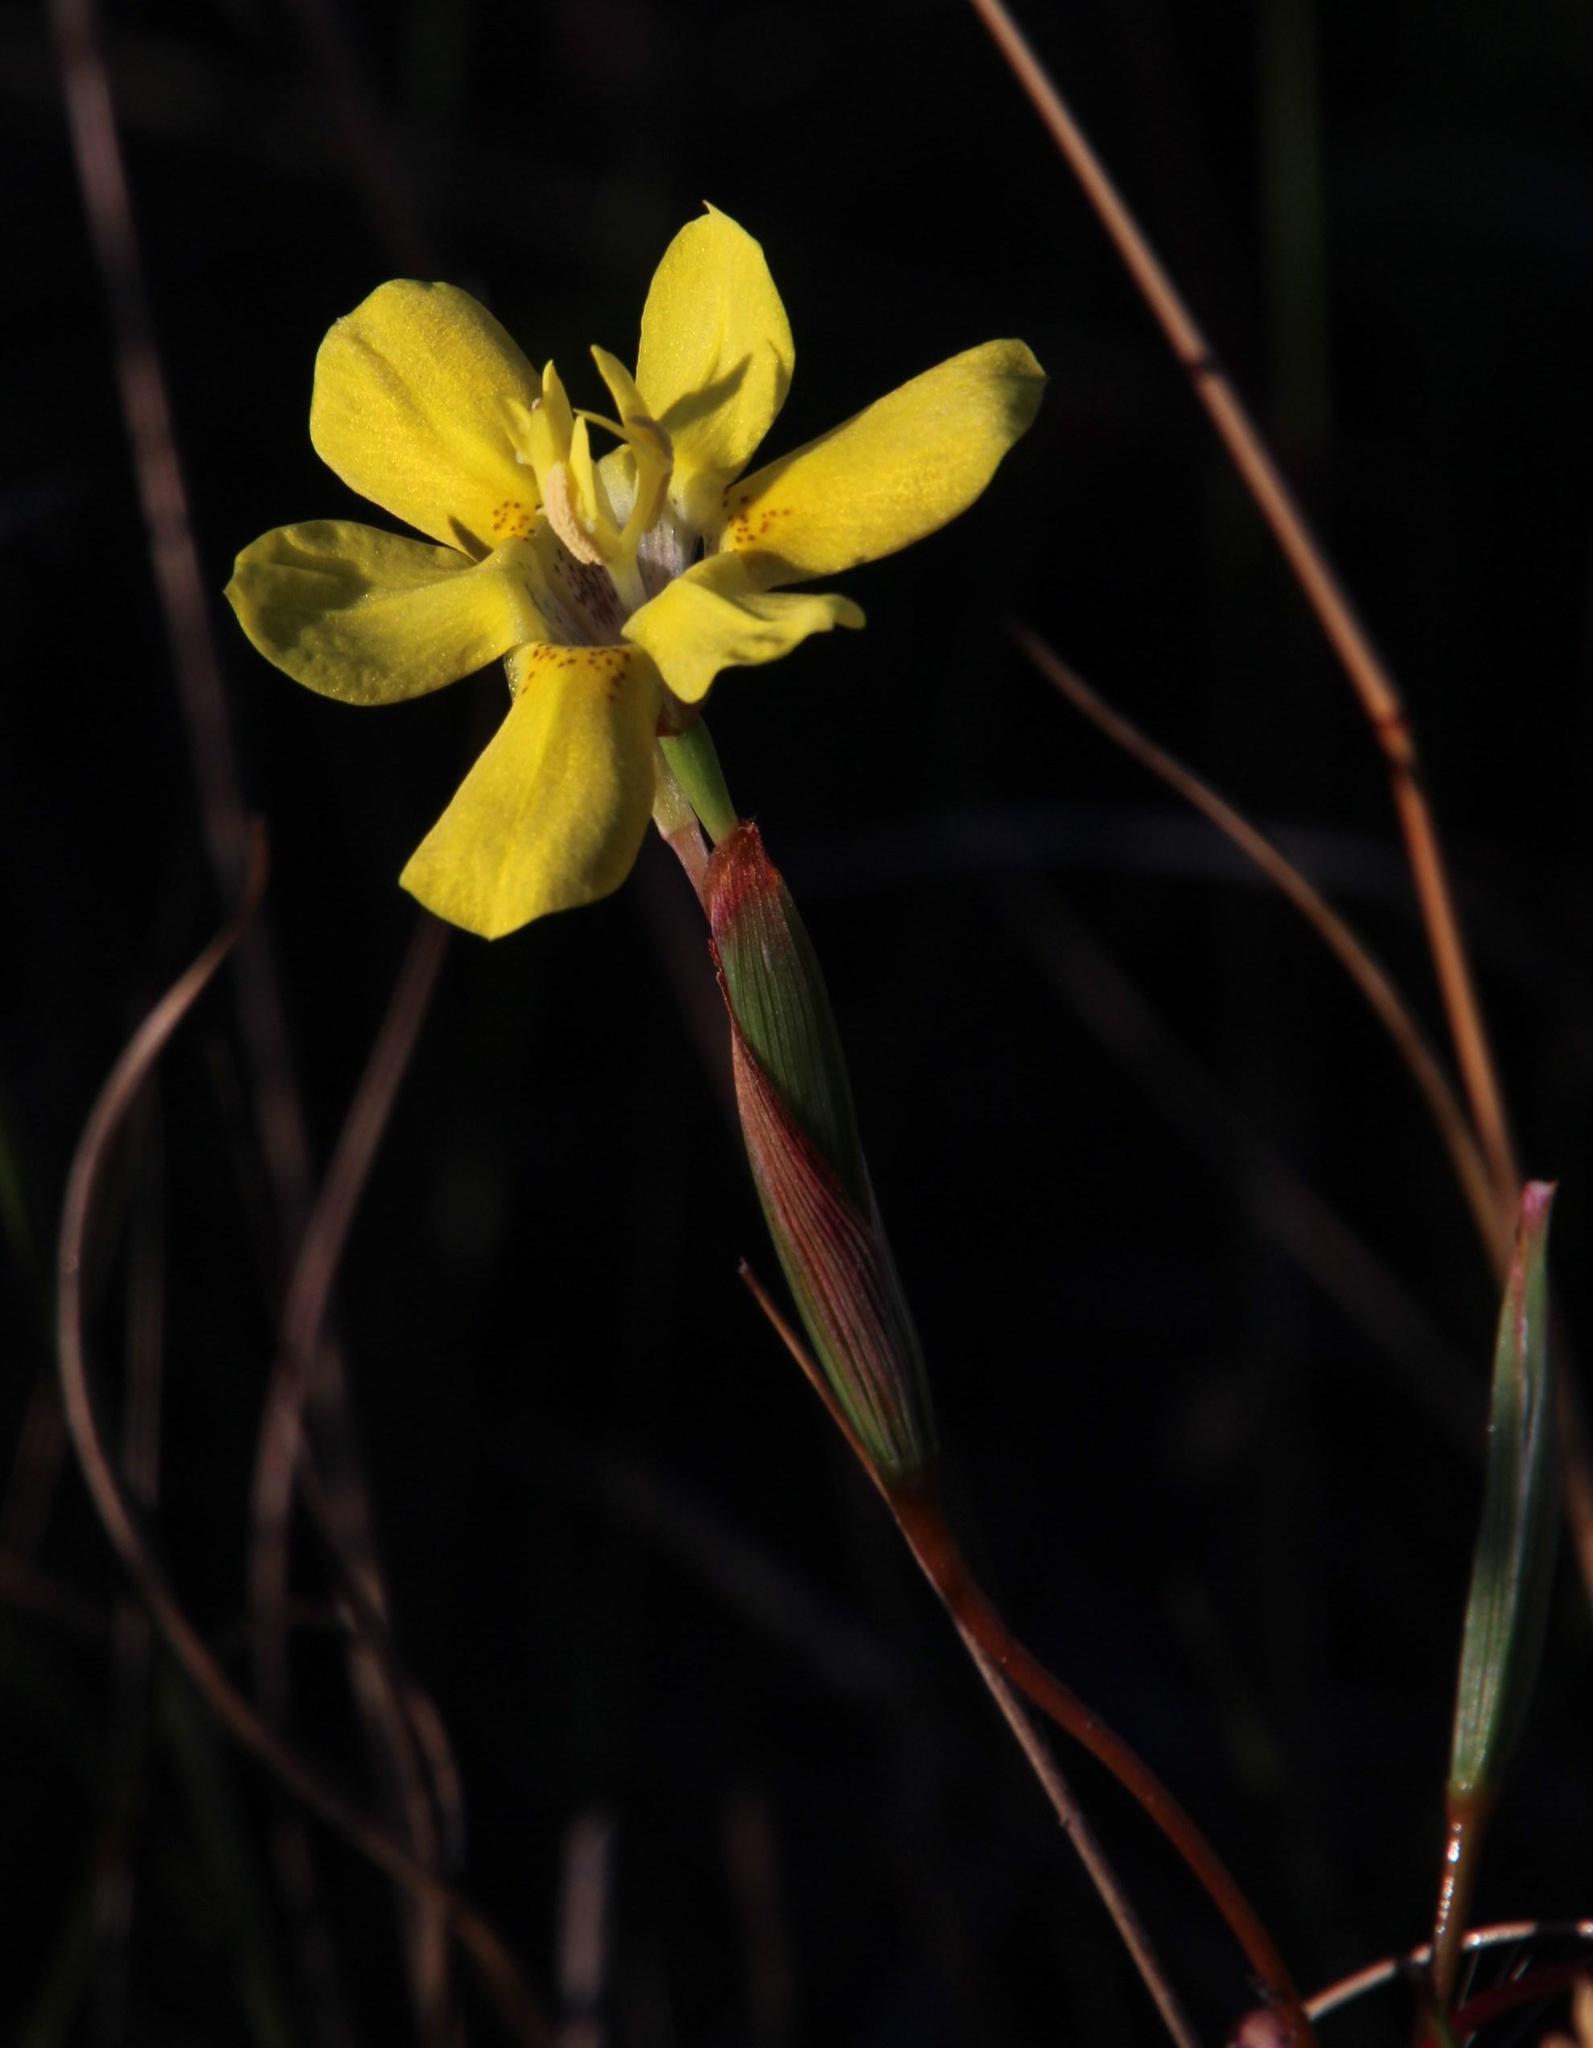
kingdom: Plantae
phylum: Tracheophyta
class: Liliopsida
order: Asparagales
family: Iridaceae
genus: Moraea
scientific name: Moraea elsiae
